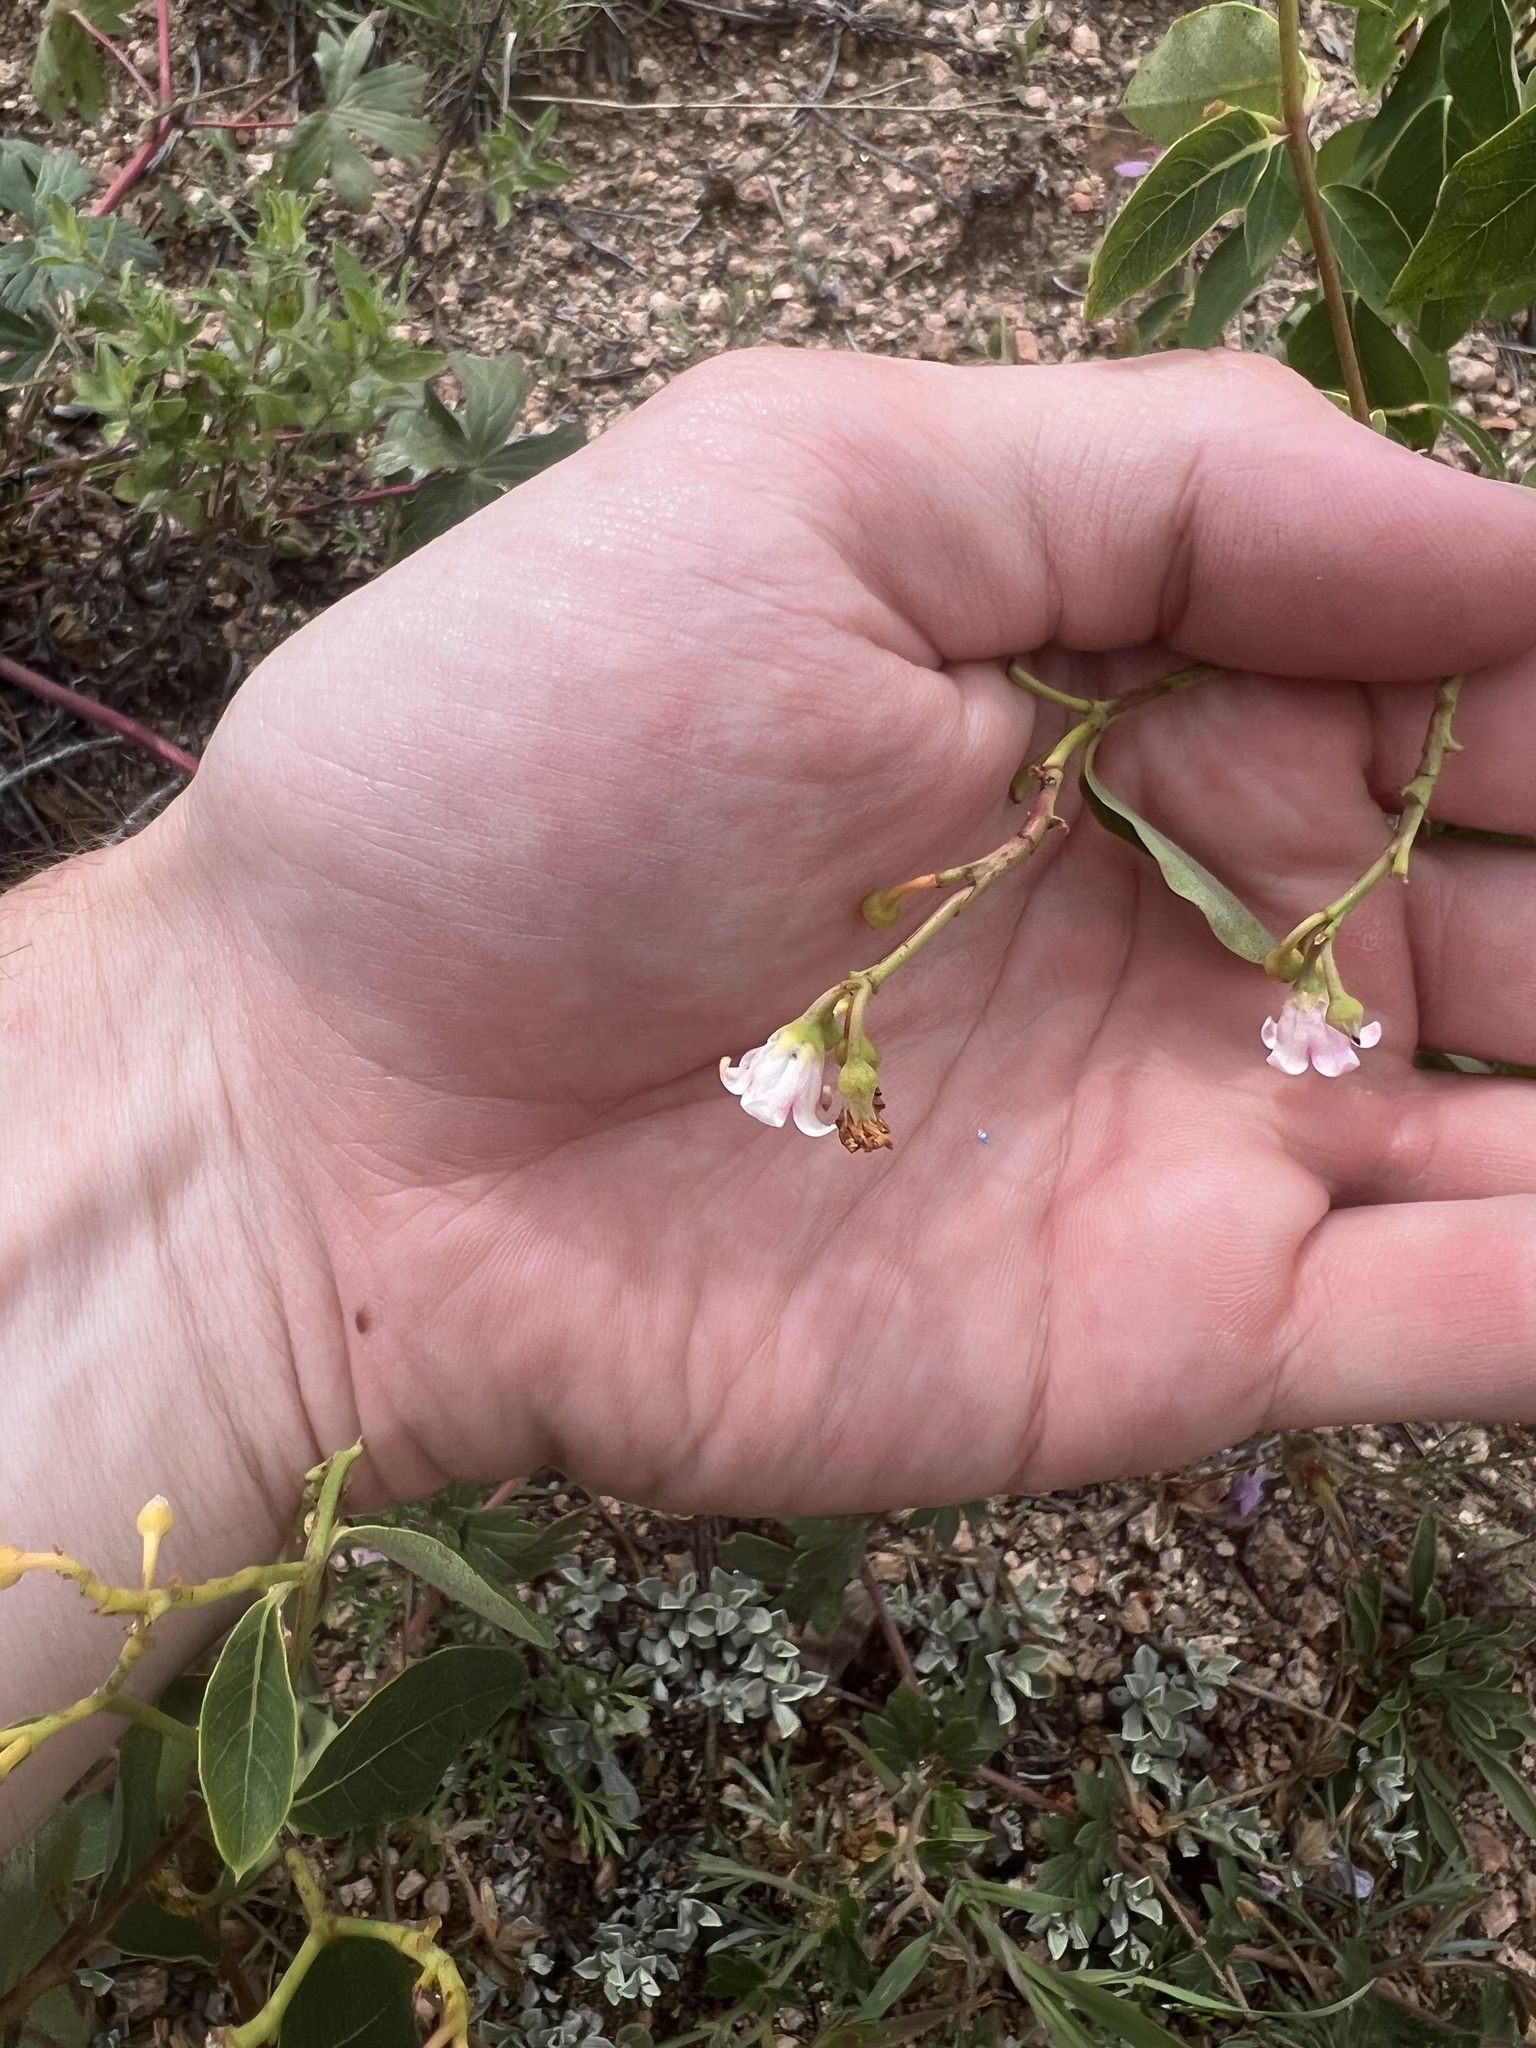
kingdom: Plantae
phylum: Tracheophyta
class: Magnoliopsida
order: Gentianales
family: Apocynaceae
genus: Apocynum
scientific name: Apocynum cannabinum
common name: Hemp dogbane
